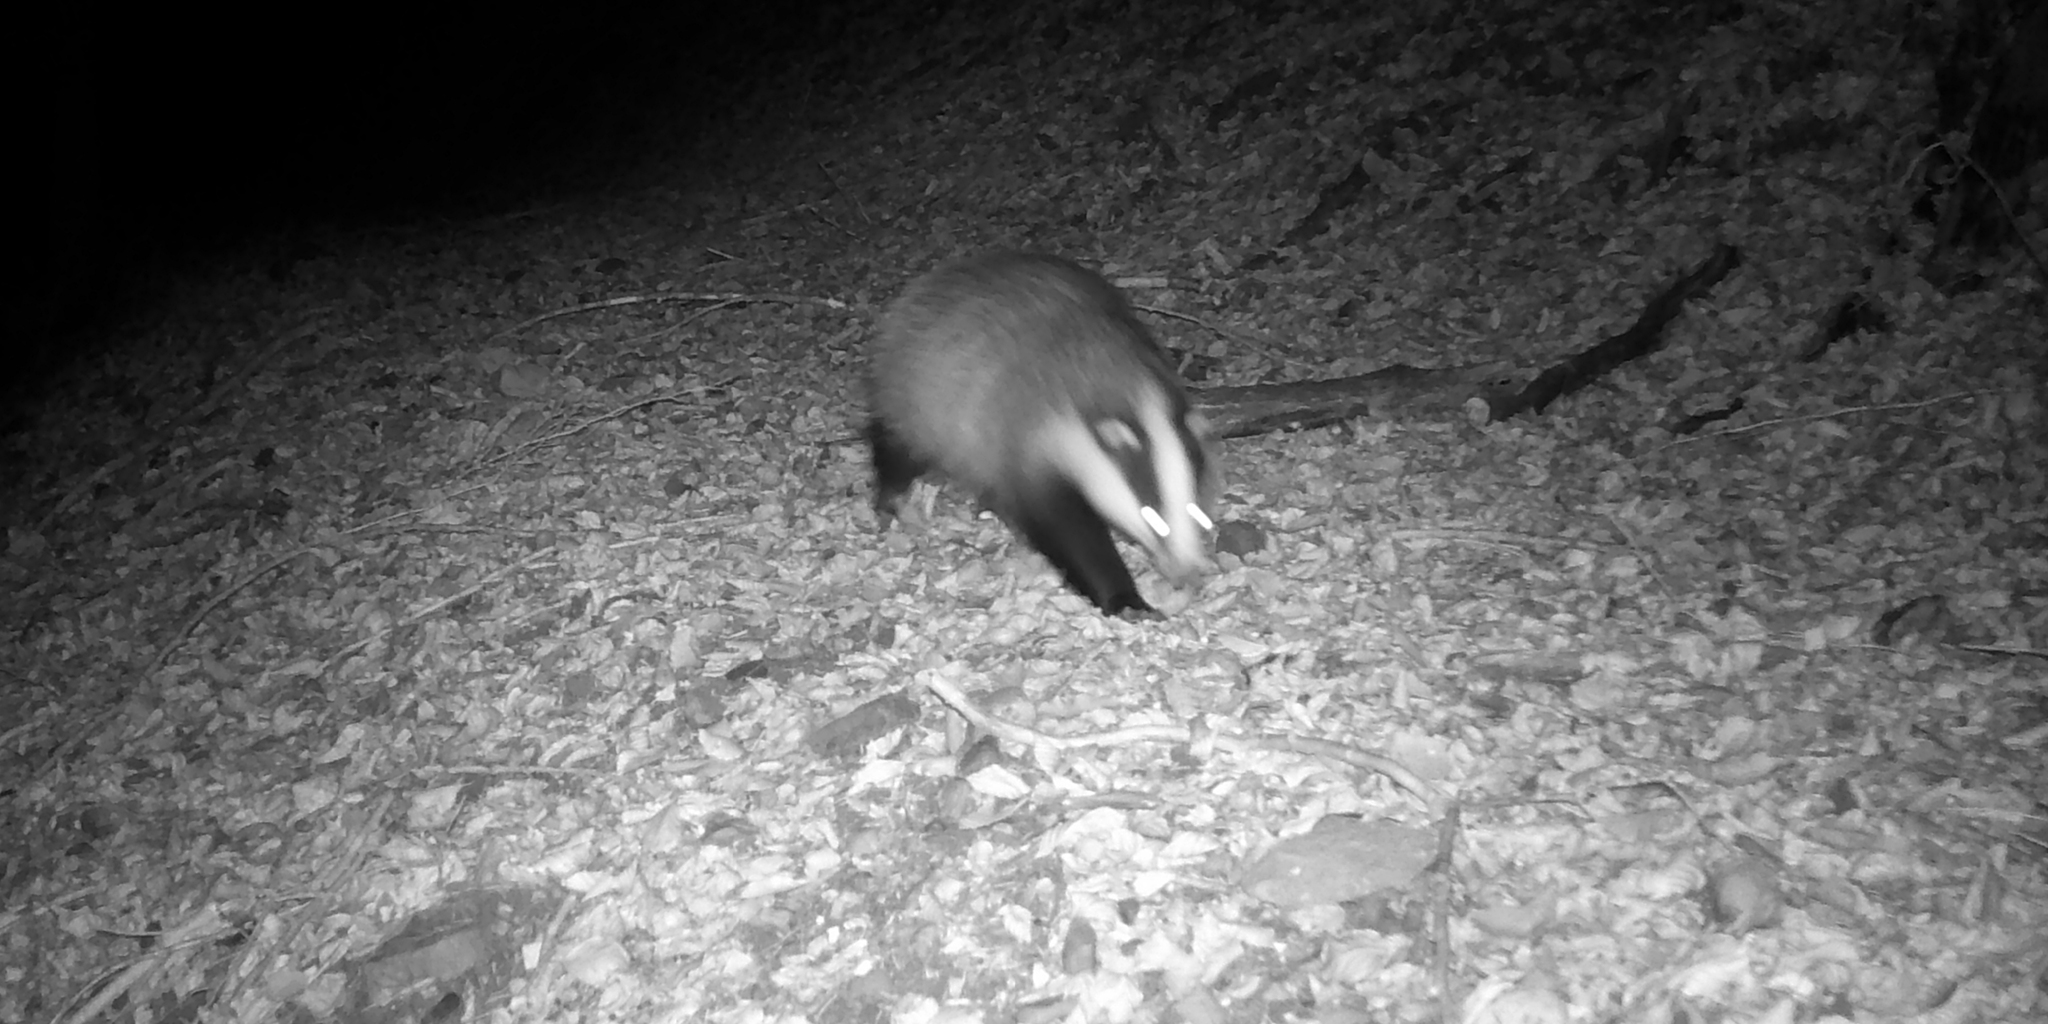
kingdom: Animalia
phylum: Chordata
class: Mammalia
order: Carnivora
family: Mustelidae
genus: Meles
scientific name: Meles meles
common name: Eurasian badger
